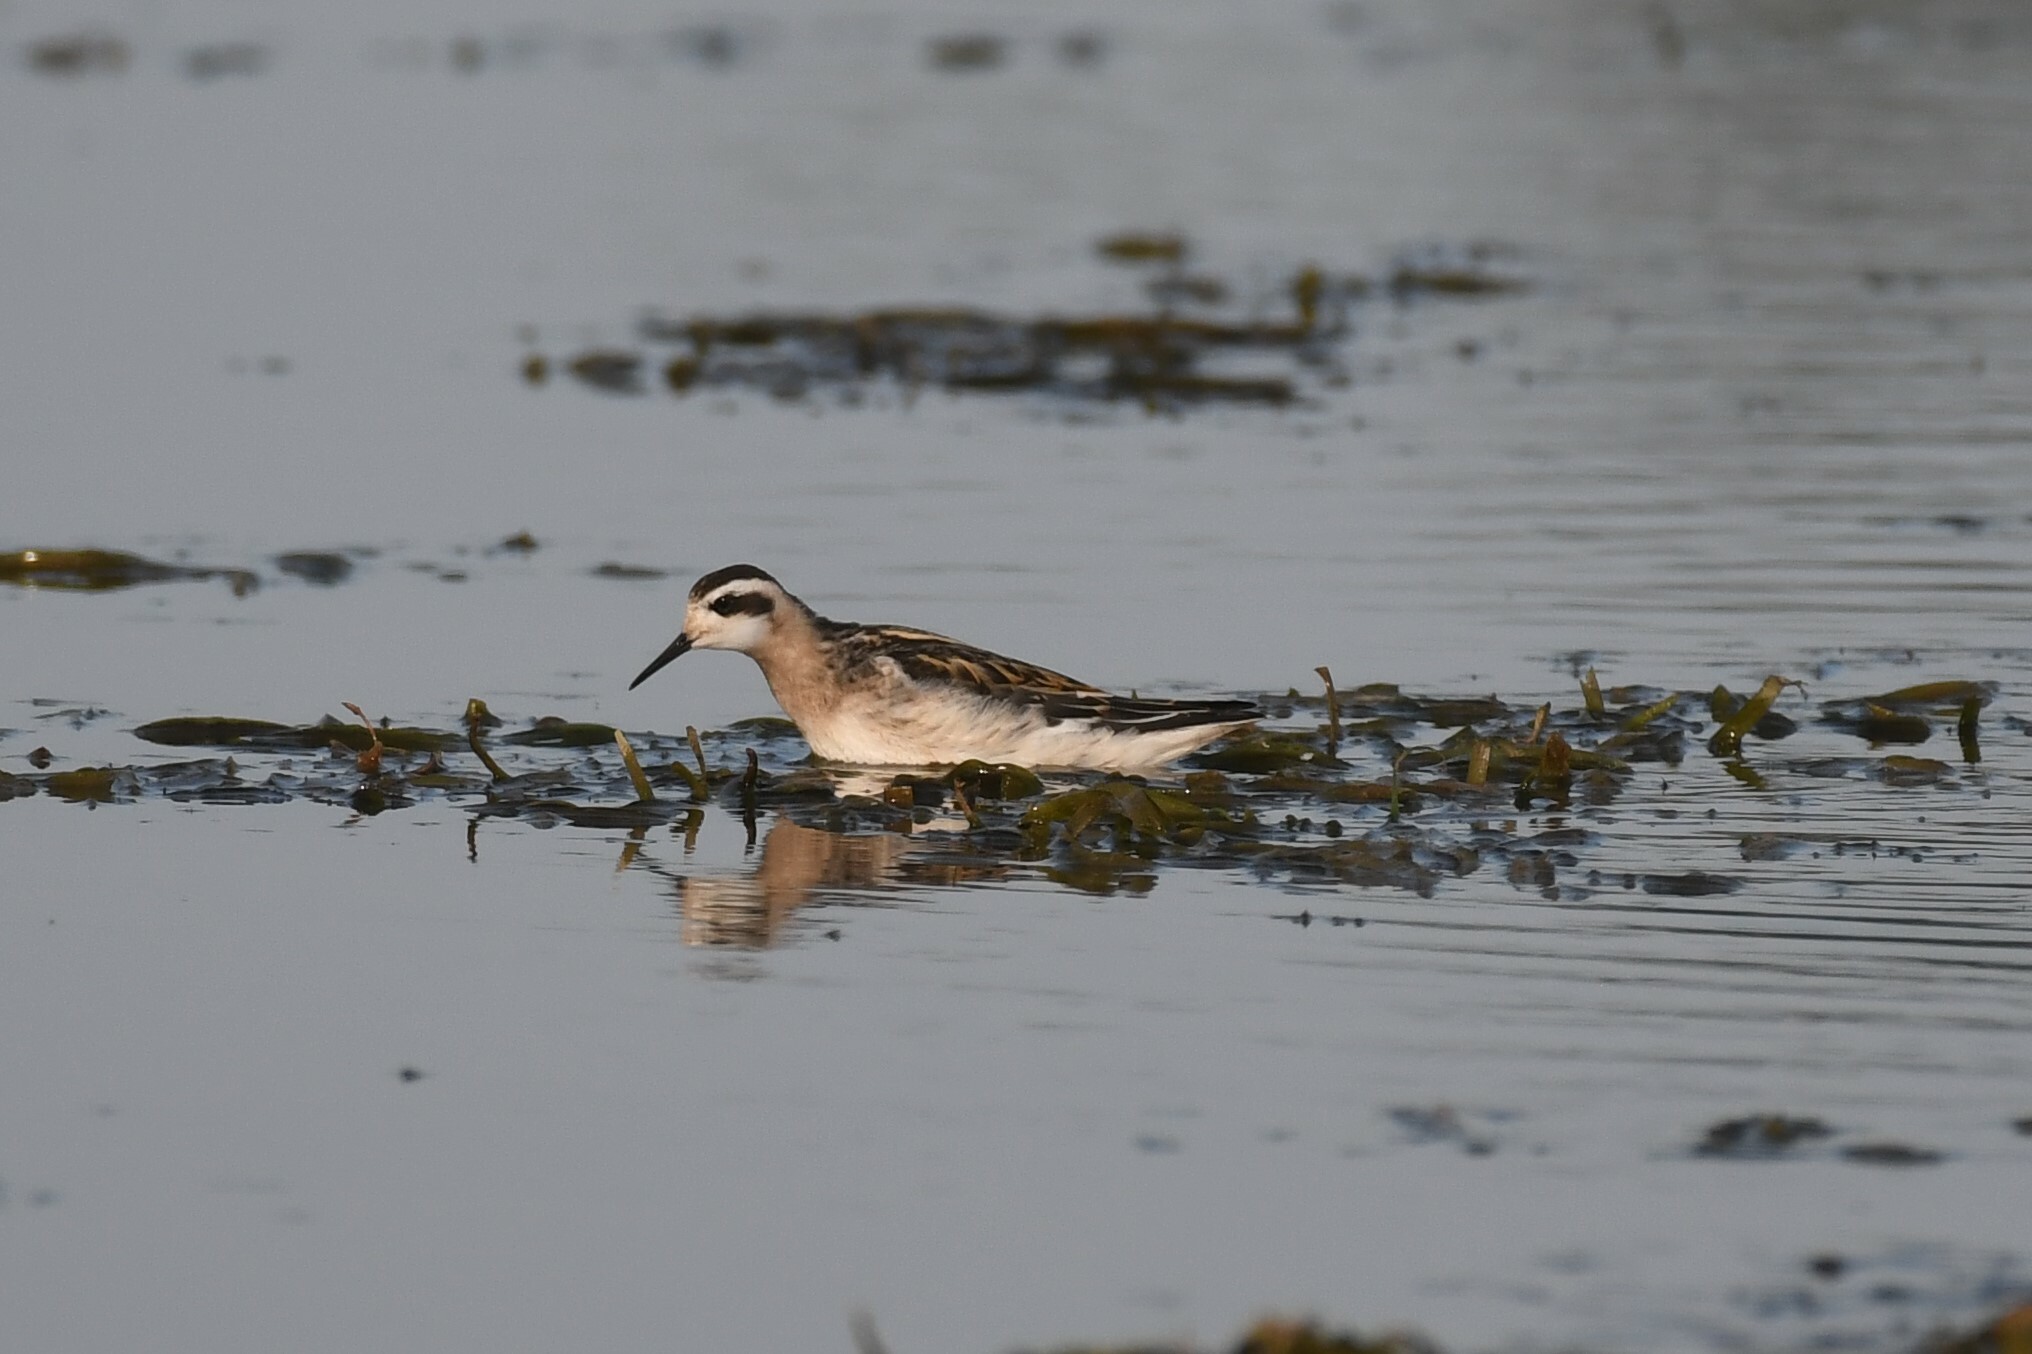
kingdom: Animalia
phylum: Chordata
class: Aves
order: Charadriiformes
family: Scolopacidae
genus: Phalaropus
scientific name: Phalaropus lobatus
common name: Red-necked phalarope
